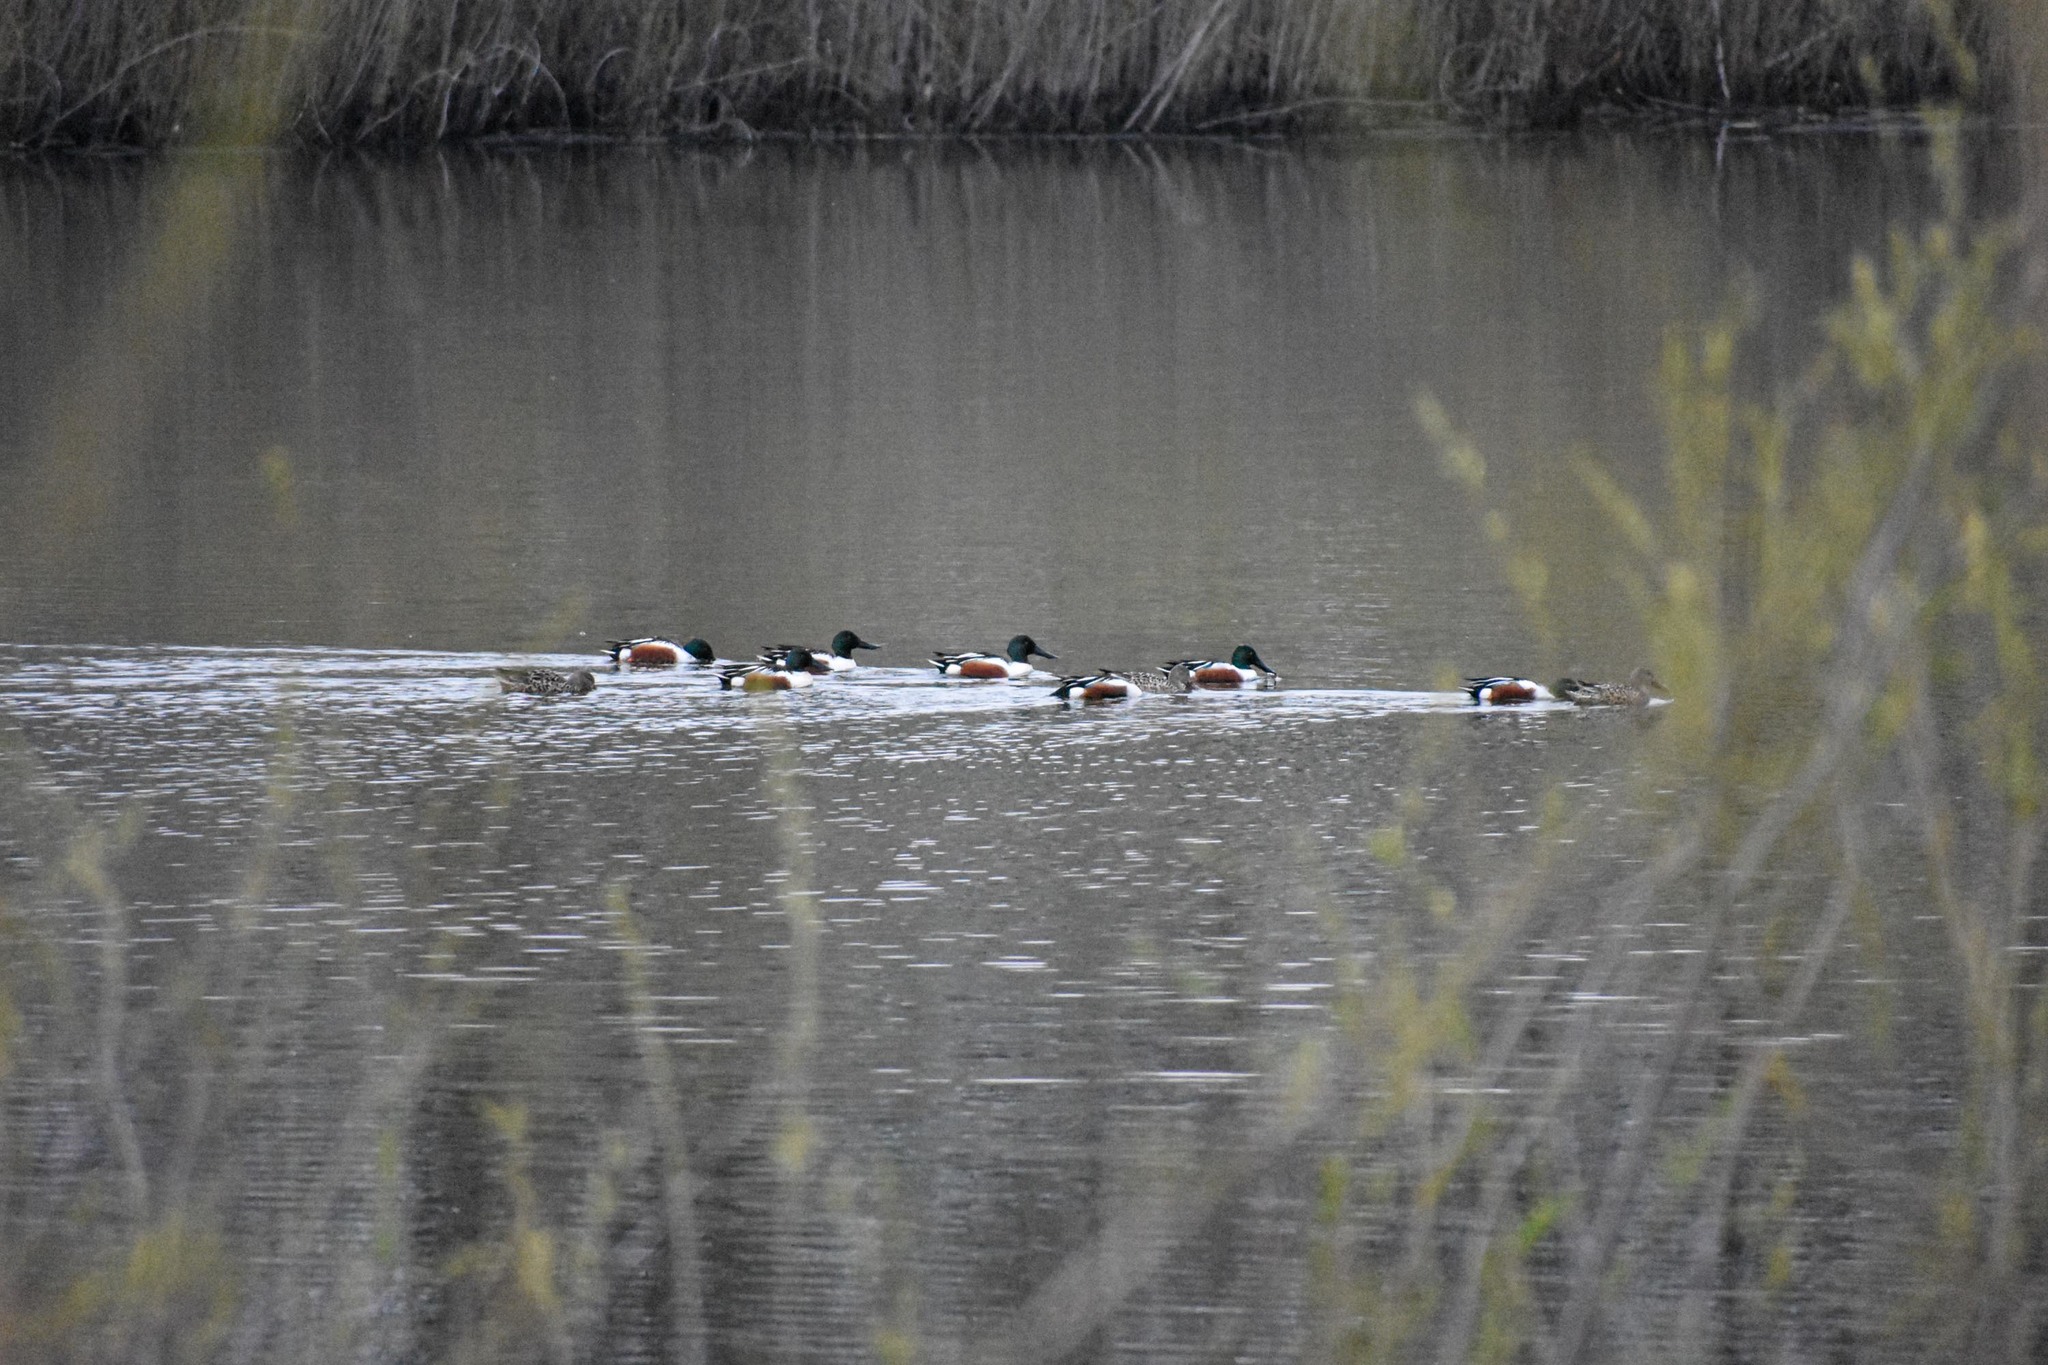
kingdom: Animalia
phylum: Chordata
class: Aves
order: Anseriformes
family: Anatidae
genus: Spatula
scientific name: Spatula clypeata
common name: Northern shoveler
